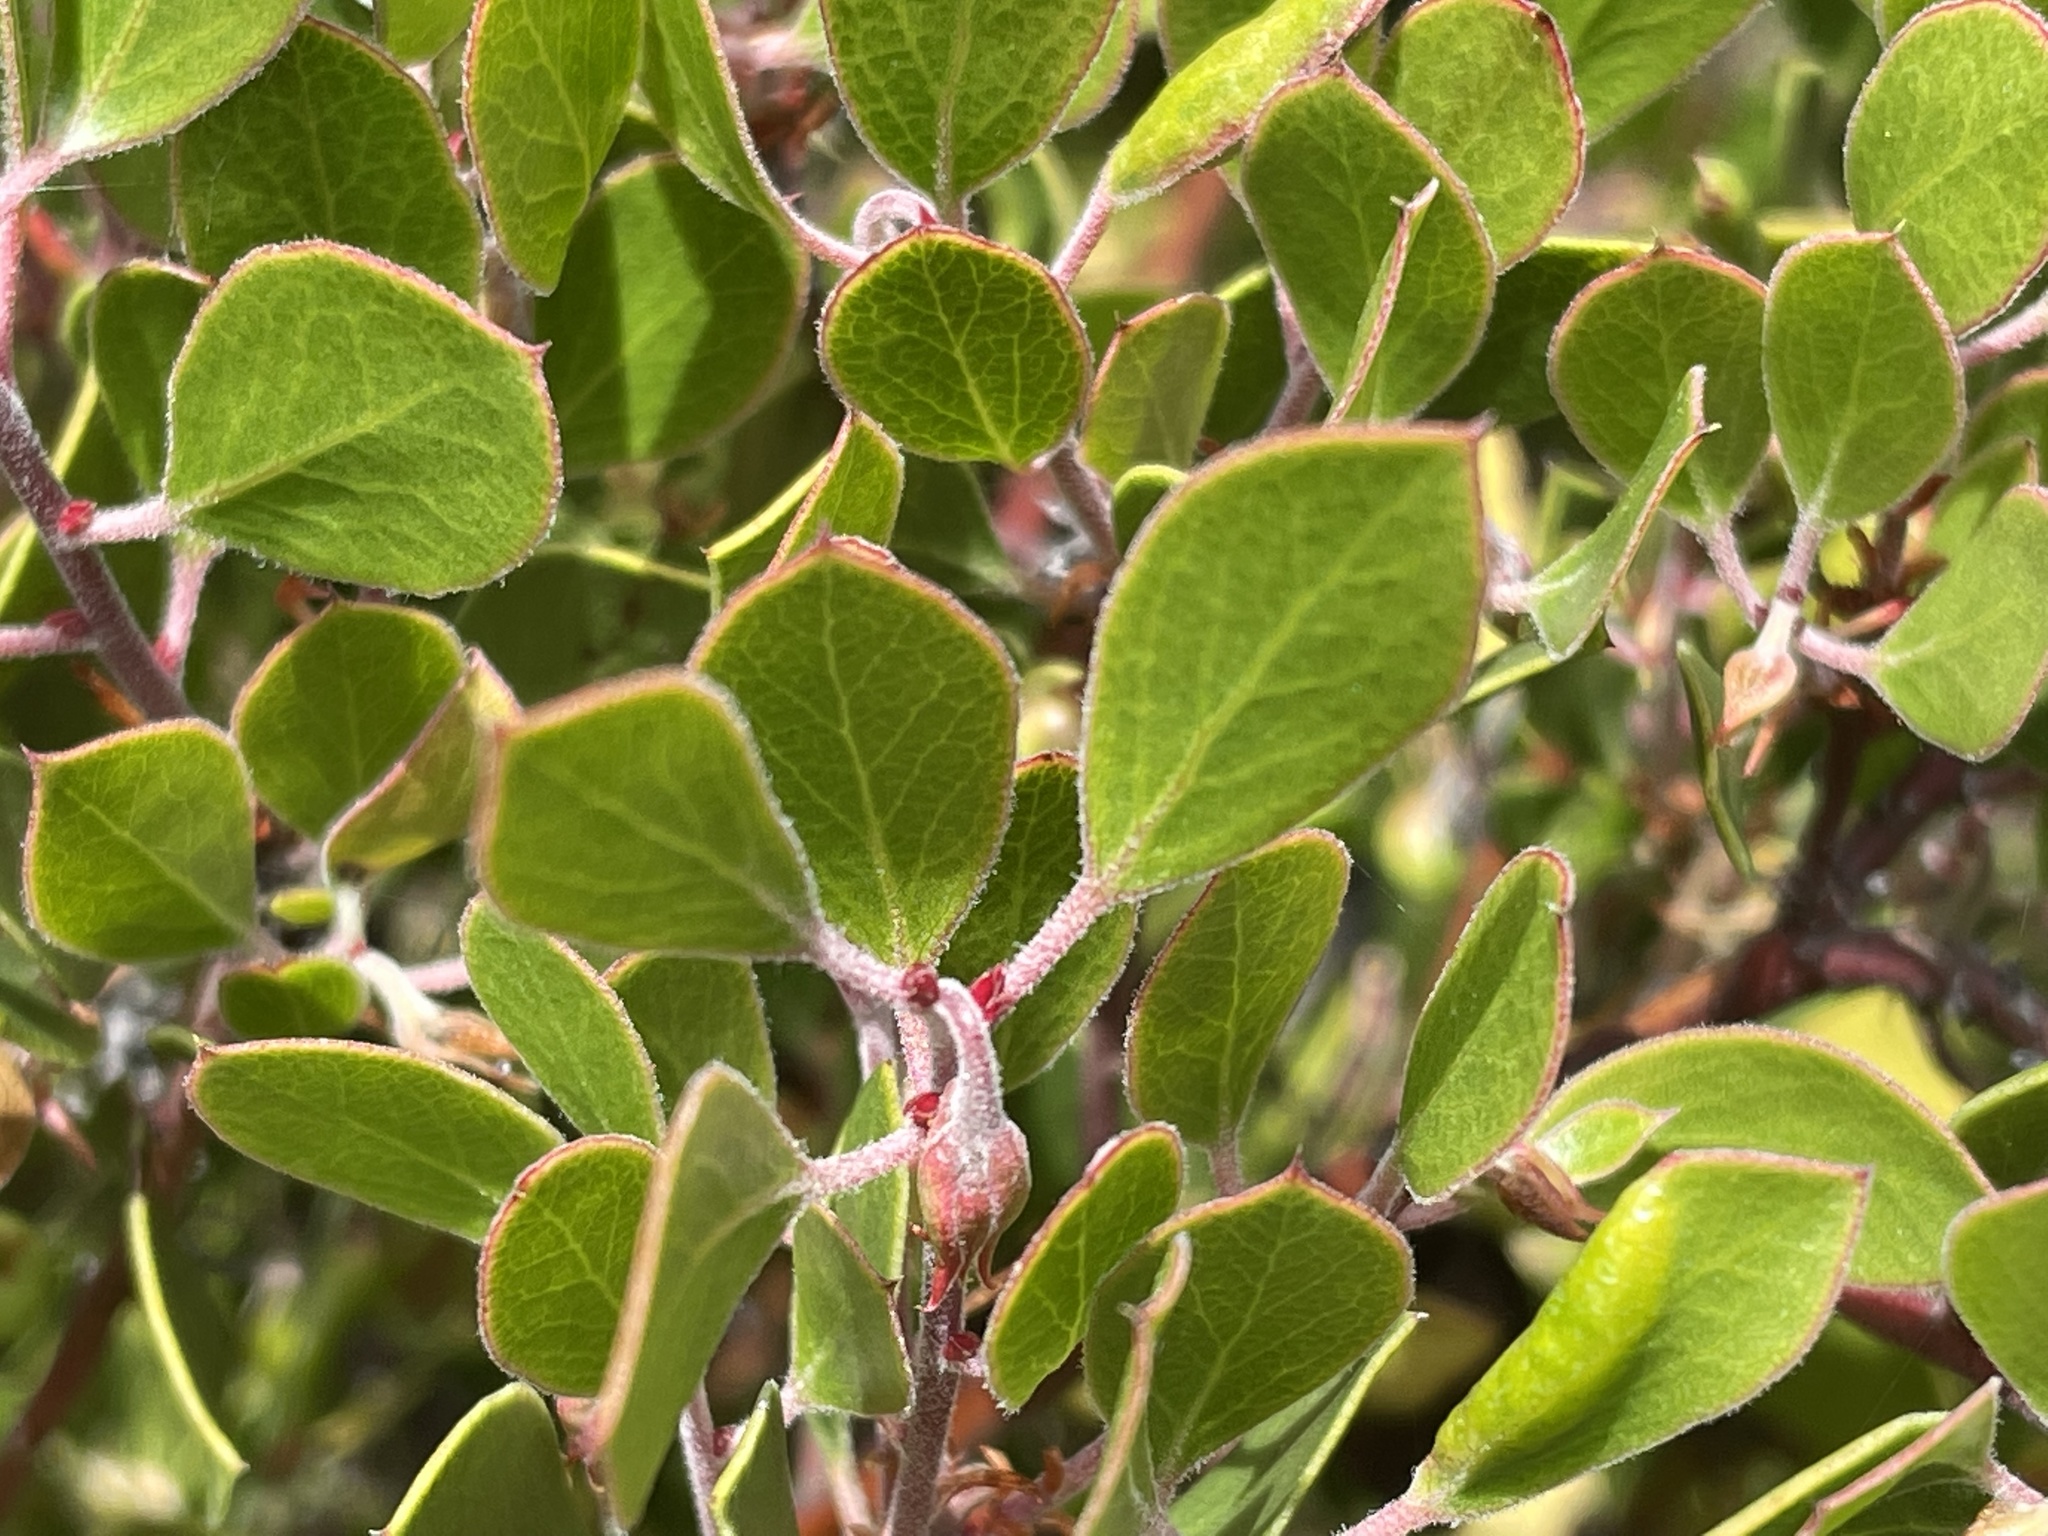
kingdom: Plantae
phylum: Tracheophyta
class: Magnoliopsida
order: Ericales
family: Ericaceae
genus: Arctostaphylos
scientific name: Arctostaphylos hookeri
